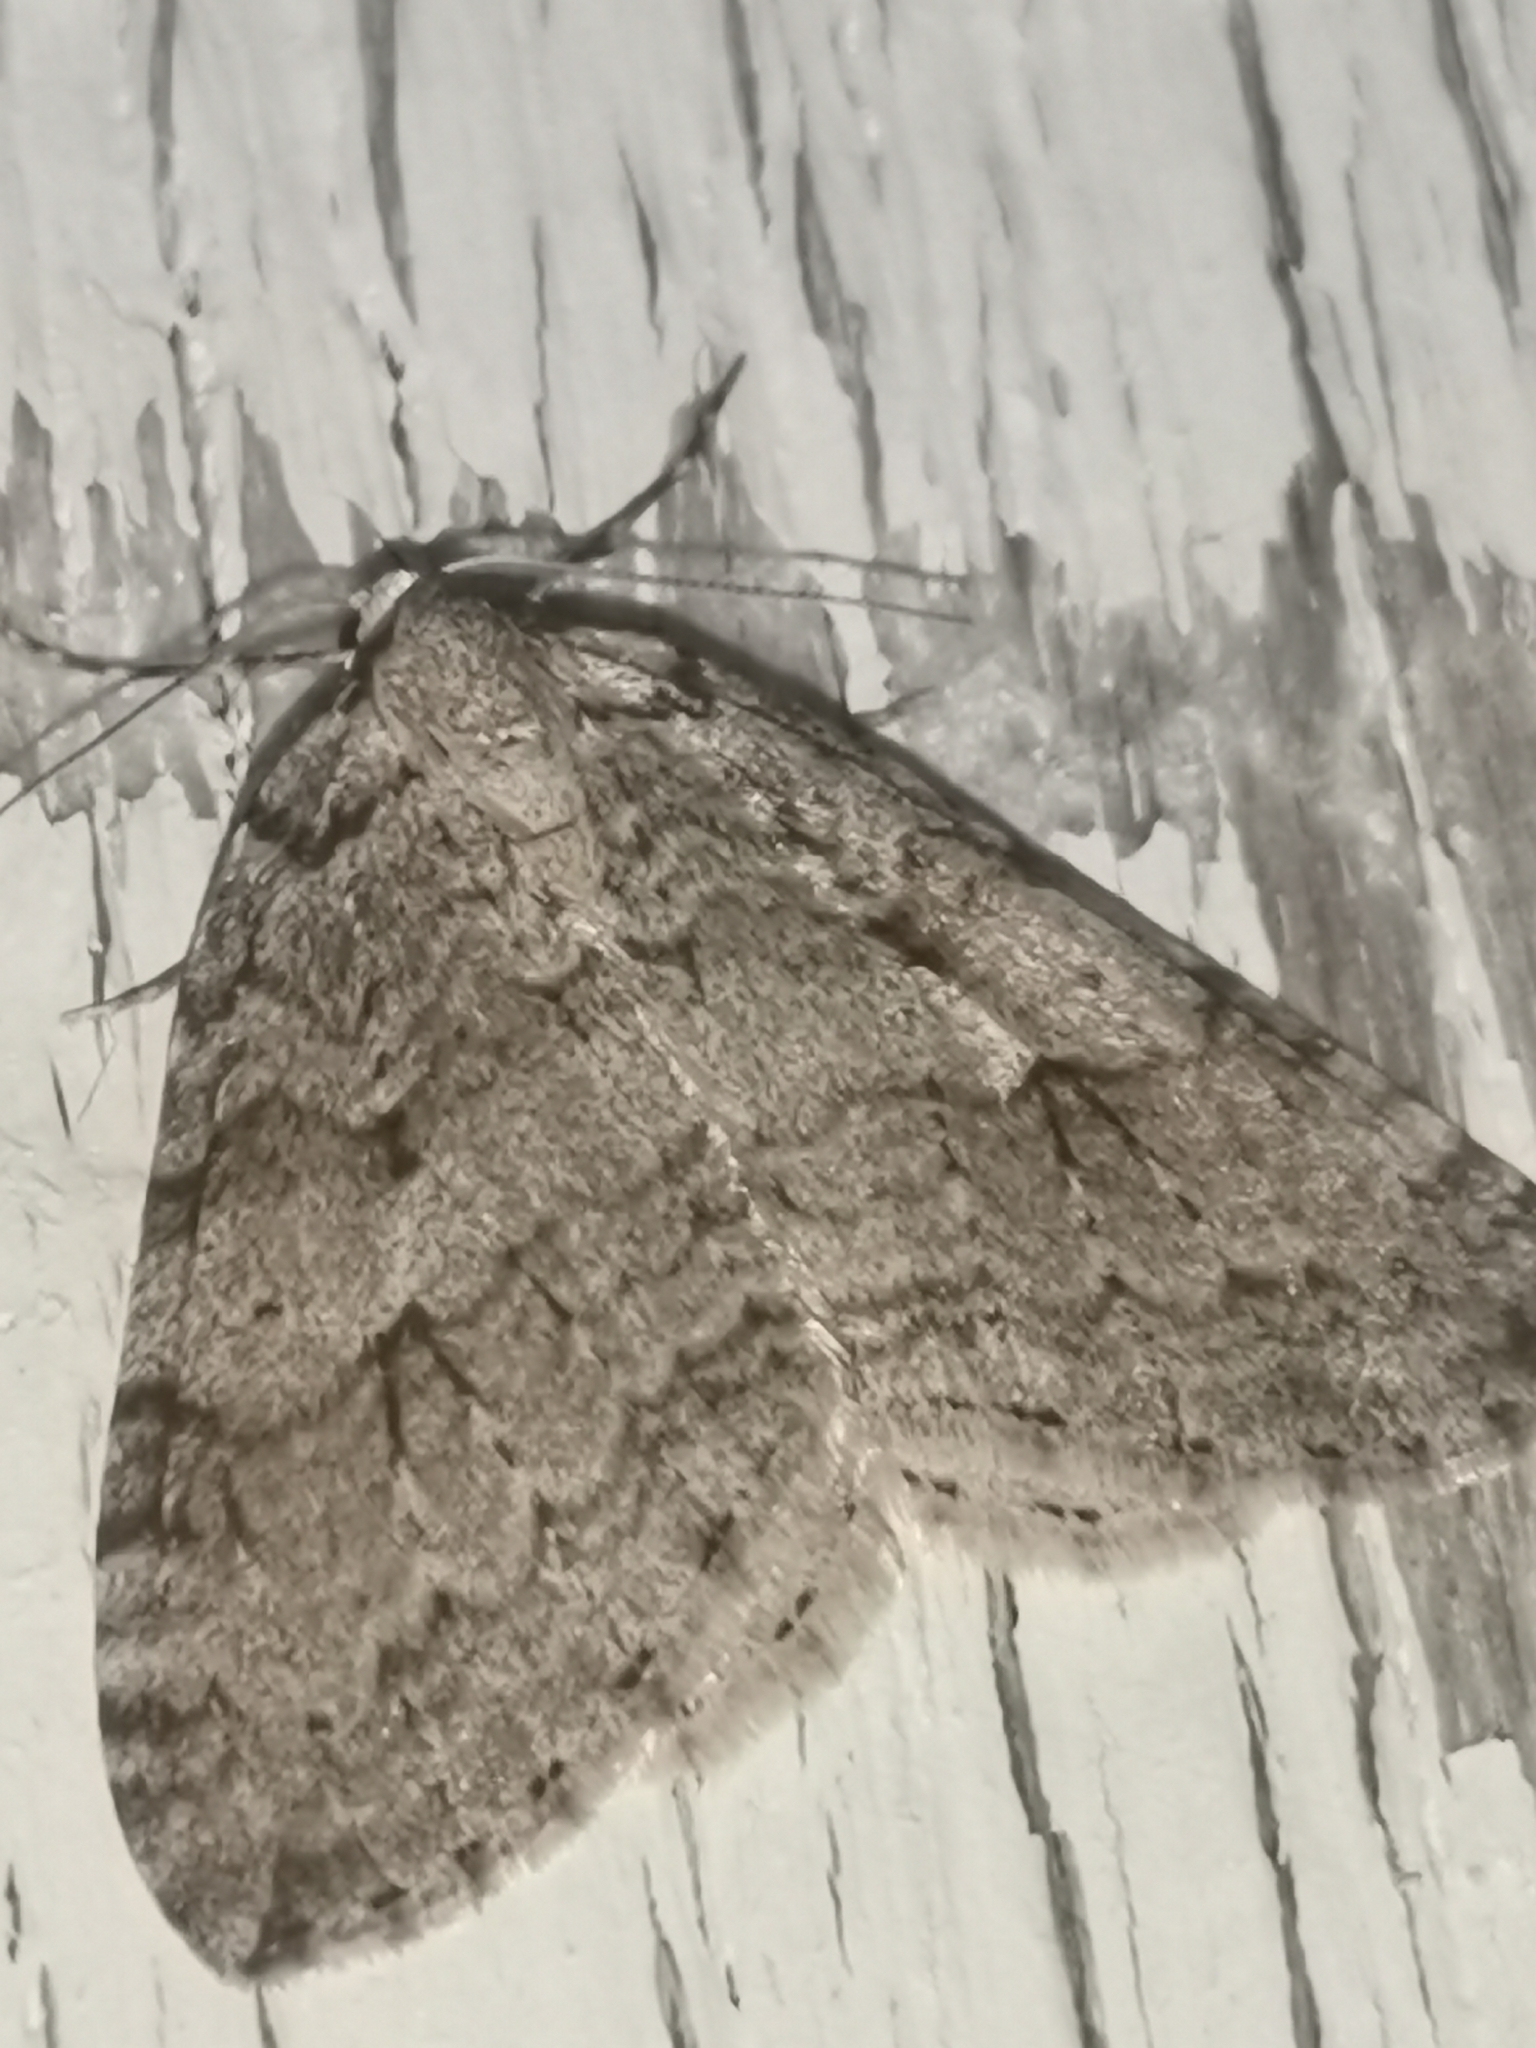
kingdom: Animalia
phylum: Arthropoda
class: Insecta
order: Lepidoptera
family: Geometridae
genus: Epirrita
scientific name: Epirrita autumnata
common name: Autumnal moth
